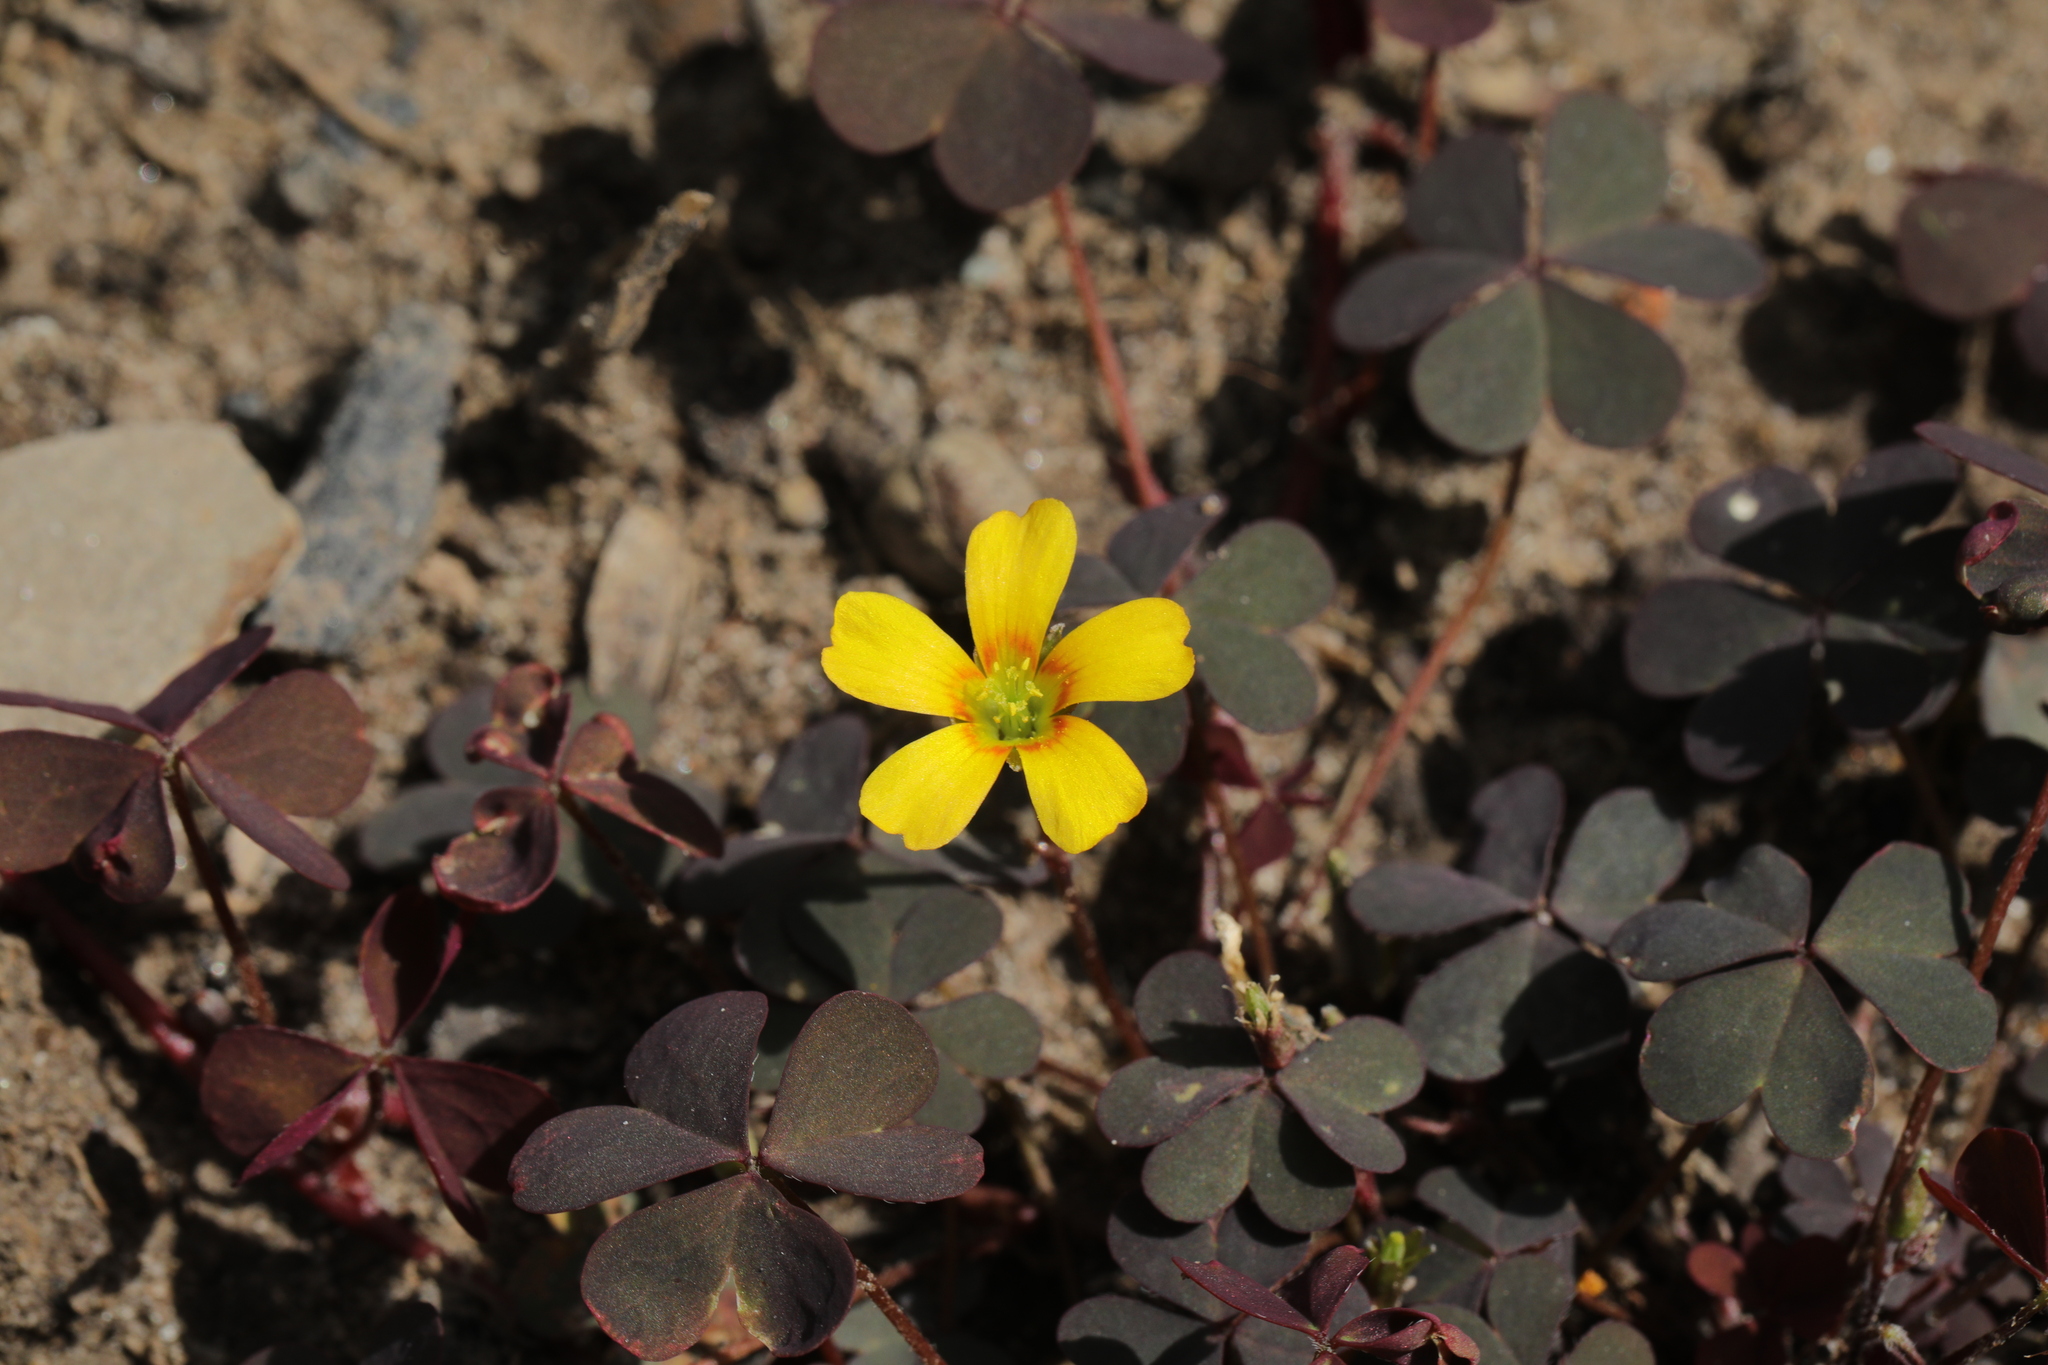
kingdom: Plantae
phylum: Tracheophyta
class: Magnoliopsida
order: Oxalidales
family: Oxalidaceae
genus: Oxalis
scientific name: Oxalis corniculata
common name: Procumbent yellow-sorrel
